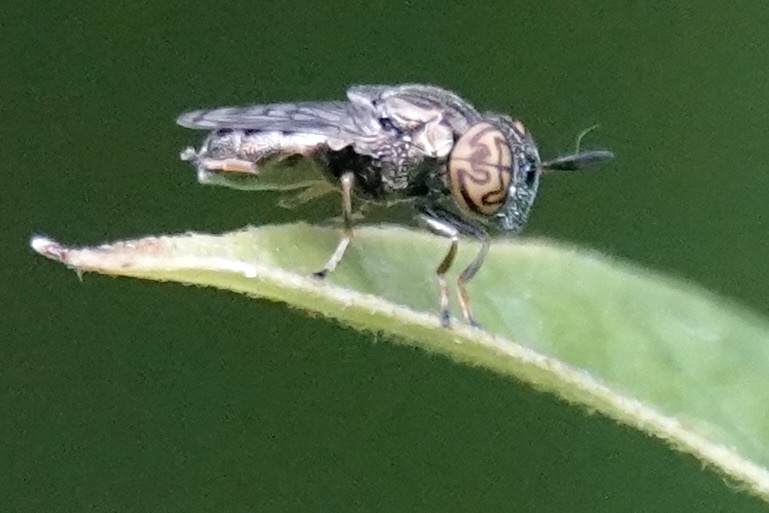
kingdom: Animalia
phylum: Arthropoda
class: Insecta
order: Diptera
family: Syrphidae
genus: Orthonevra
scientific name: Orthonevra nitida
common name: Wavy mucksucker
